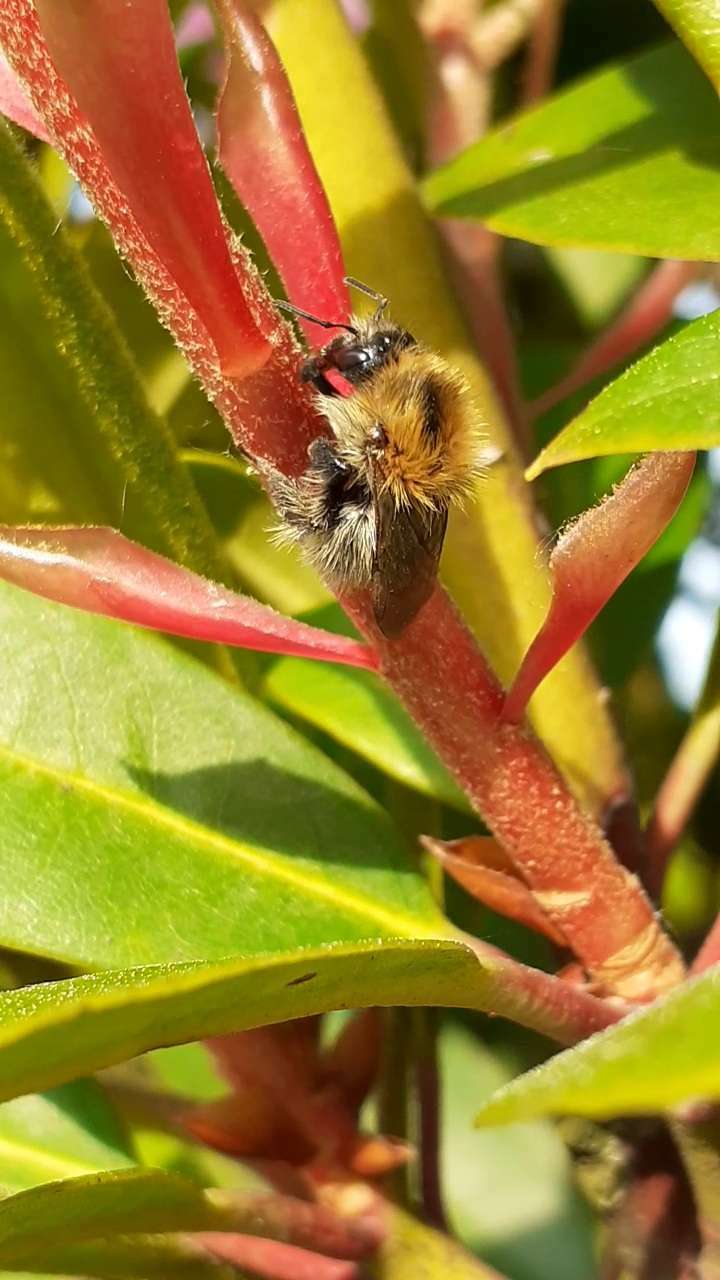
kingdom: Animalia
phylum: Arthropoda
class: Insecta
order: Hymenoptera
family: Apidae
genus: Bombus
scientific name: Bombus pascuorum
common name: Common carder bee
